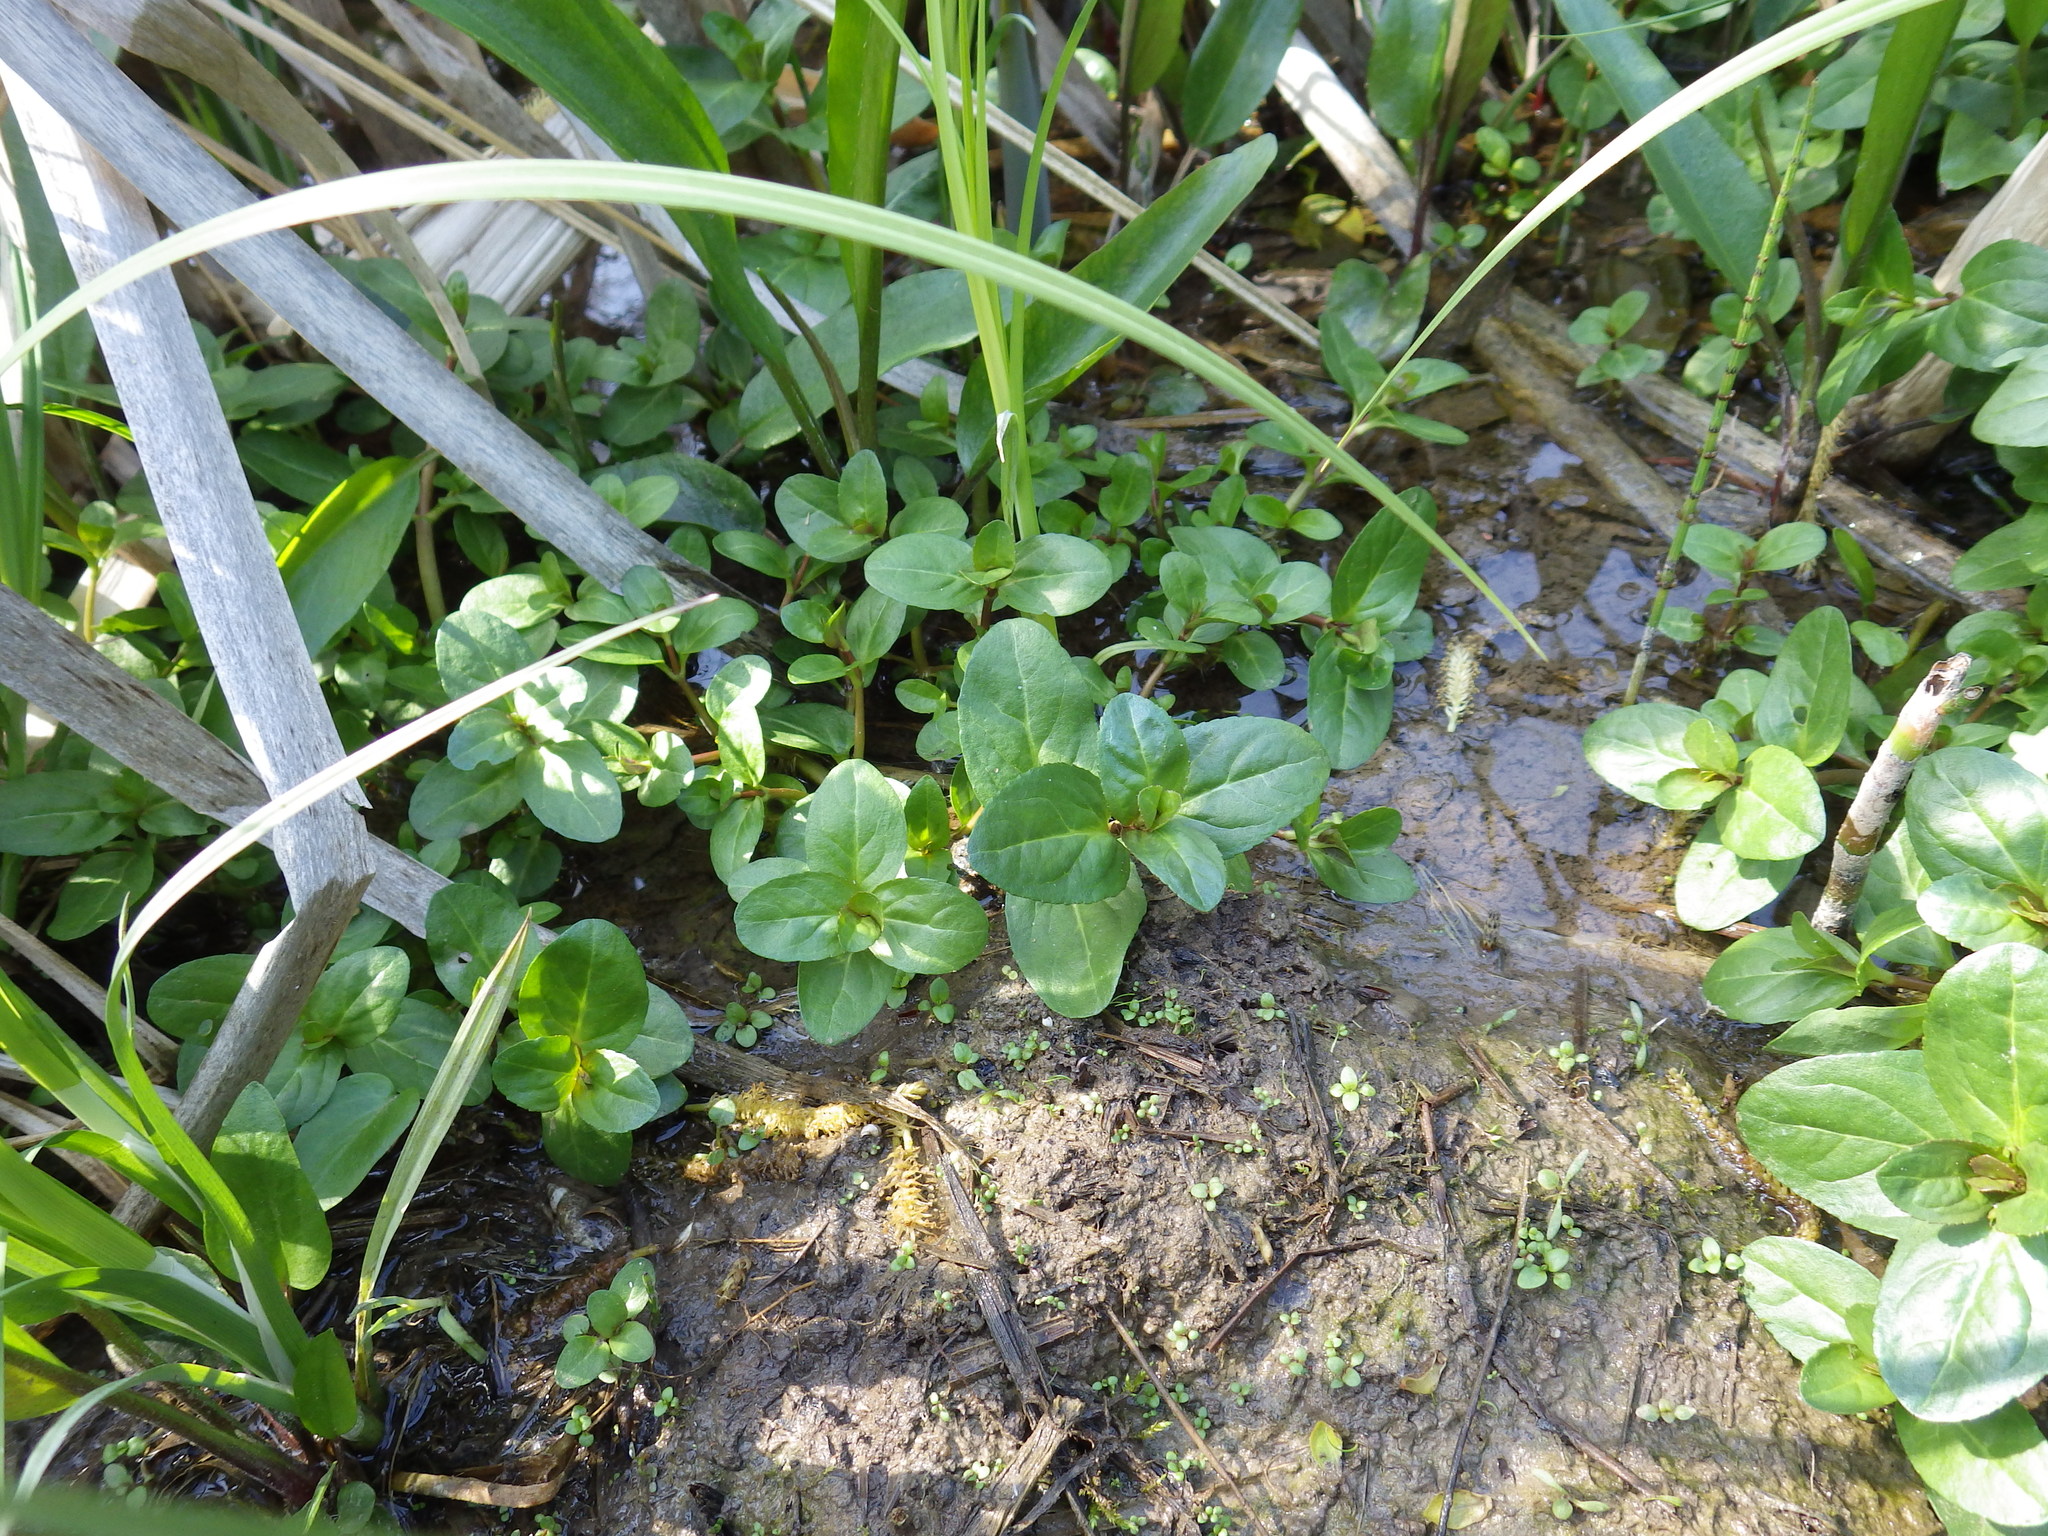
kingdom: Plantae
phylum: Tracheophyta
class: Magnoliopsida
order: Lamiales
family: Plantaginaceae
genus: Veronica
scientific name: Veronica beccabunga
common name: Brooklime
